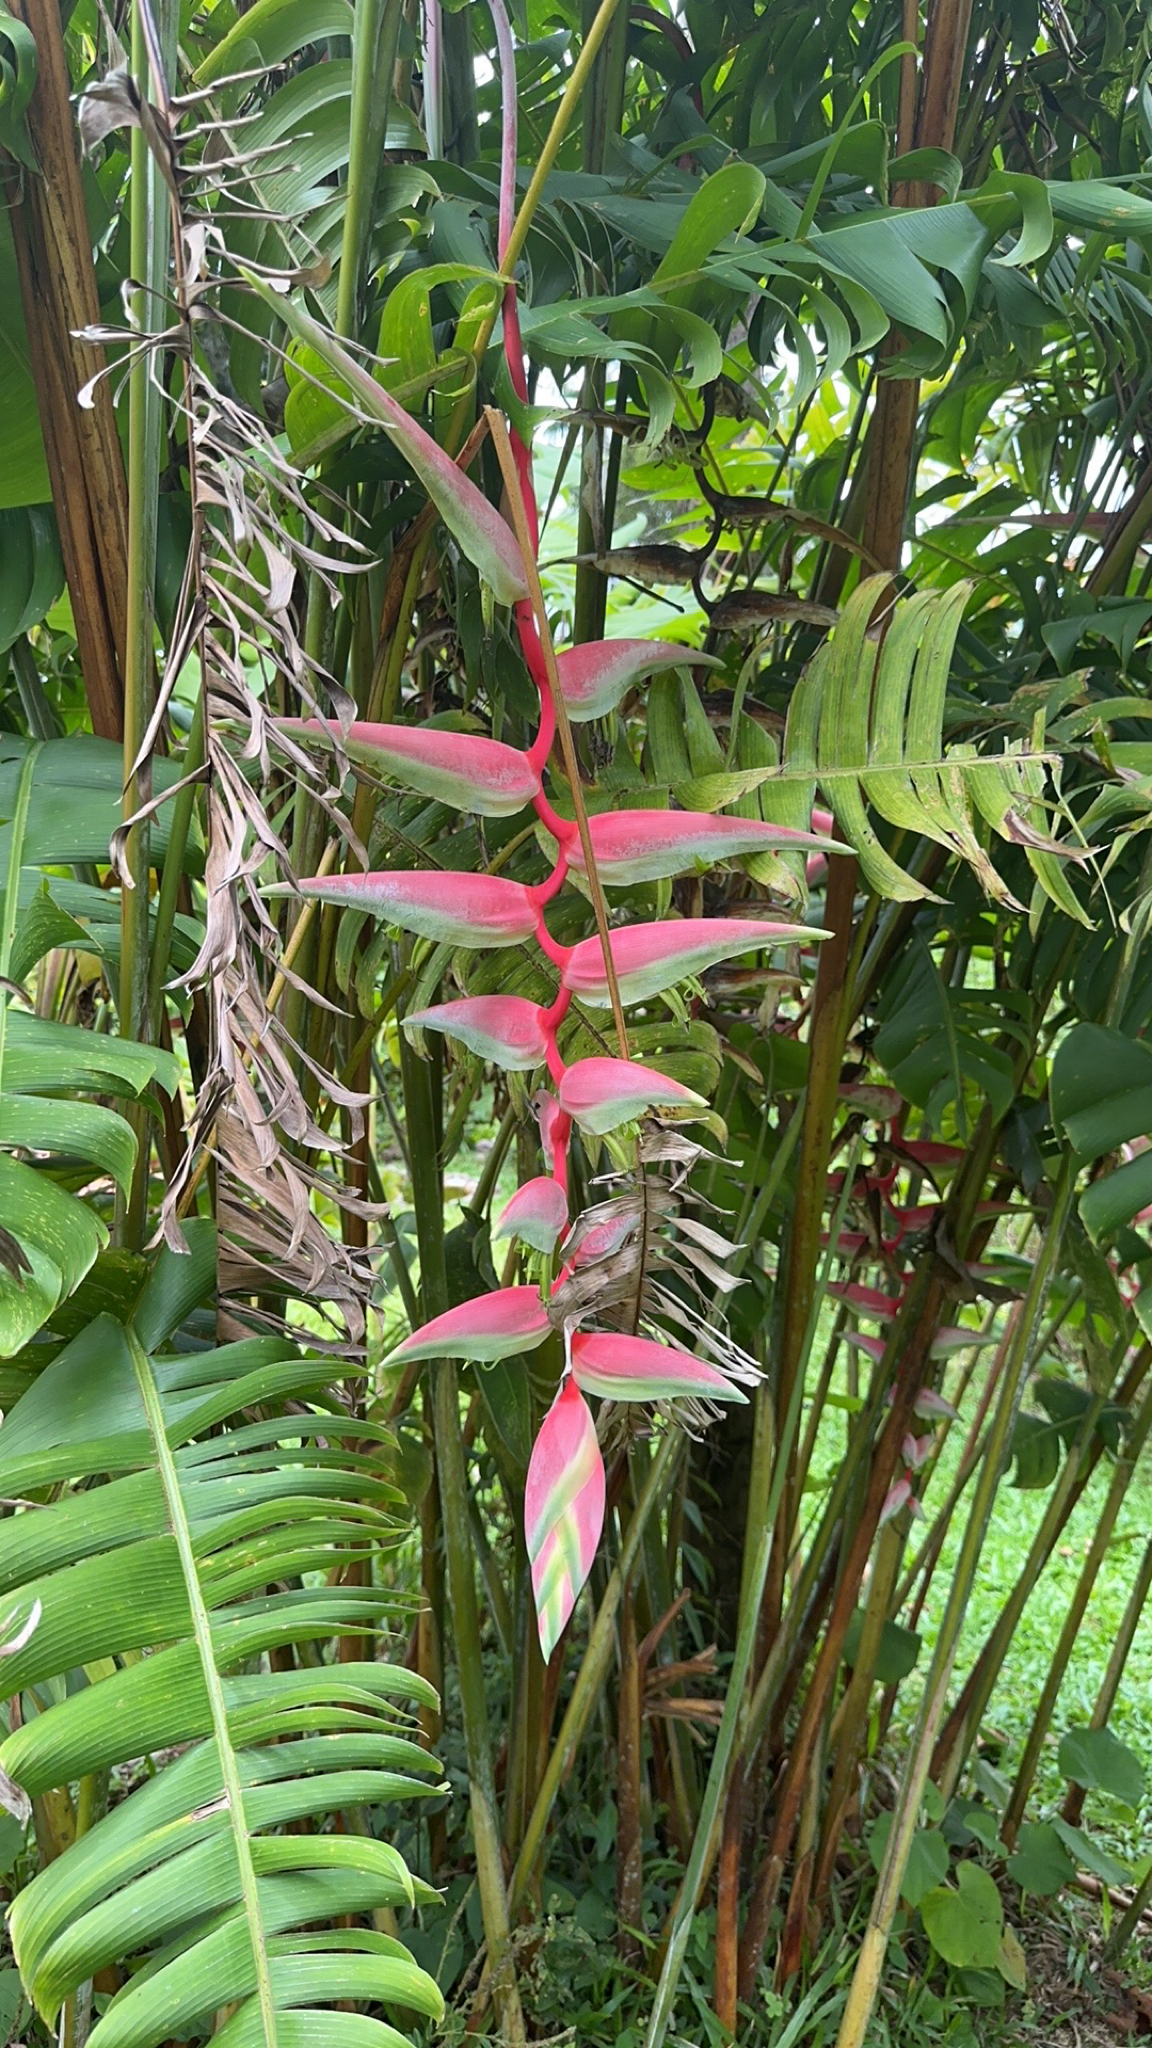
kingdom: Plantae
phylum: Tracheophyta
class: Liliopsida
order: Zingiberales
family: Heliconiaceae
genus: Heliconia
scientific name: Heliconia chartacea
